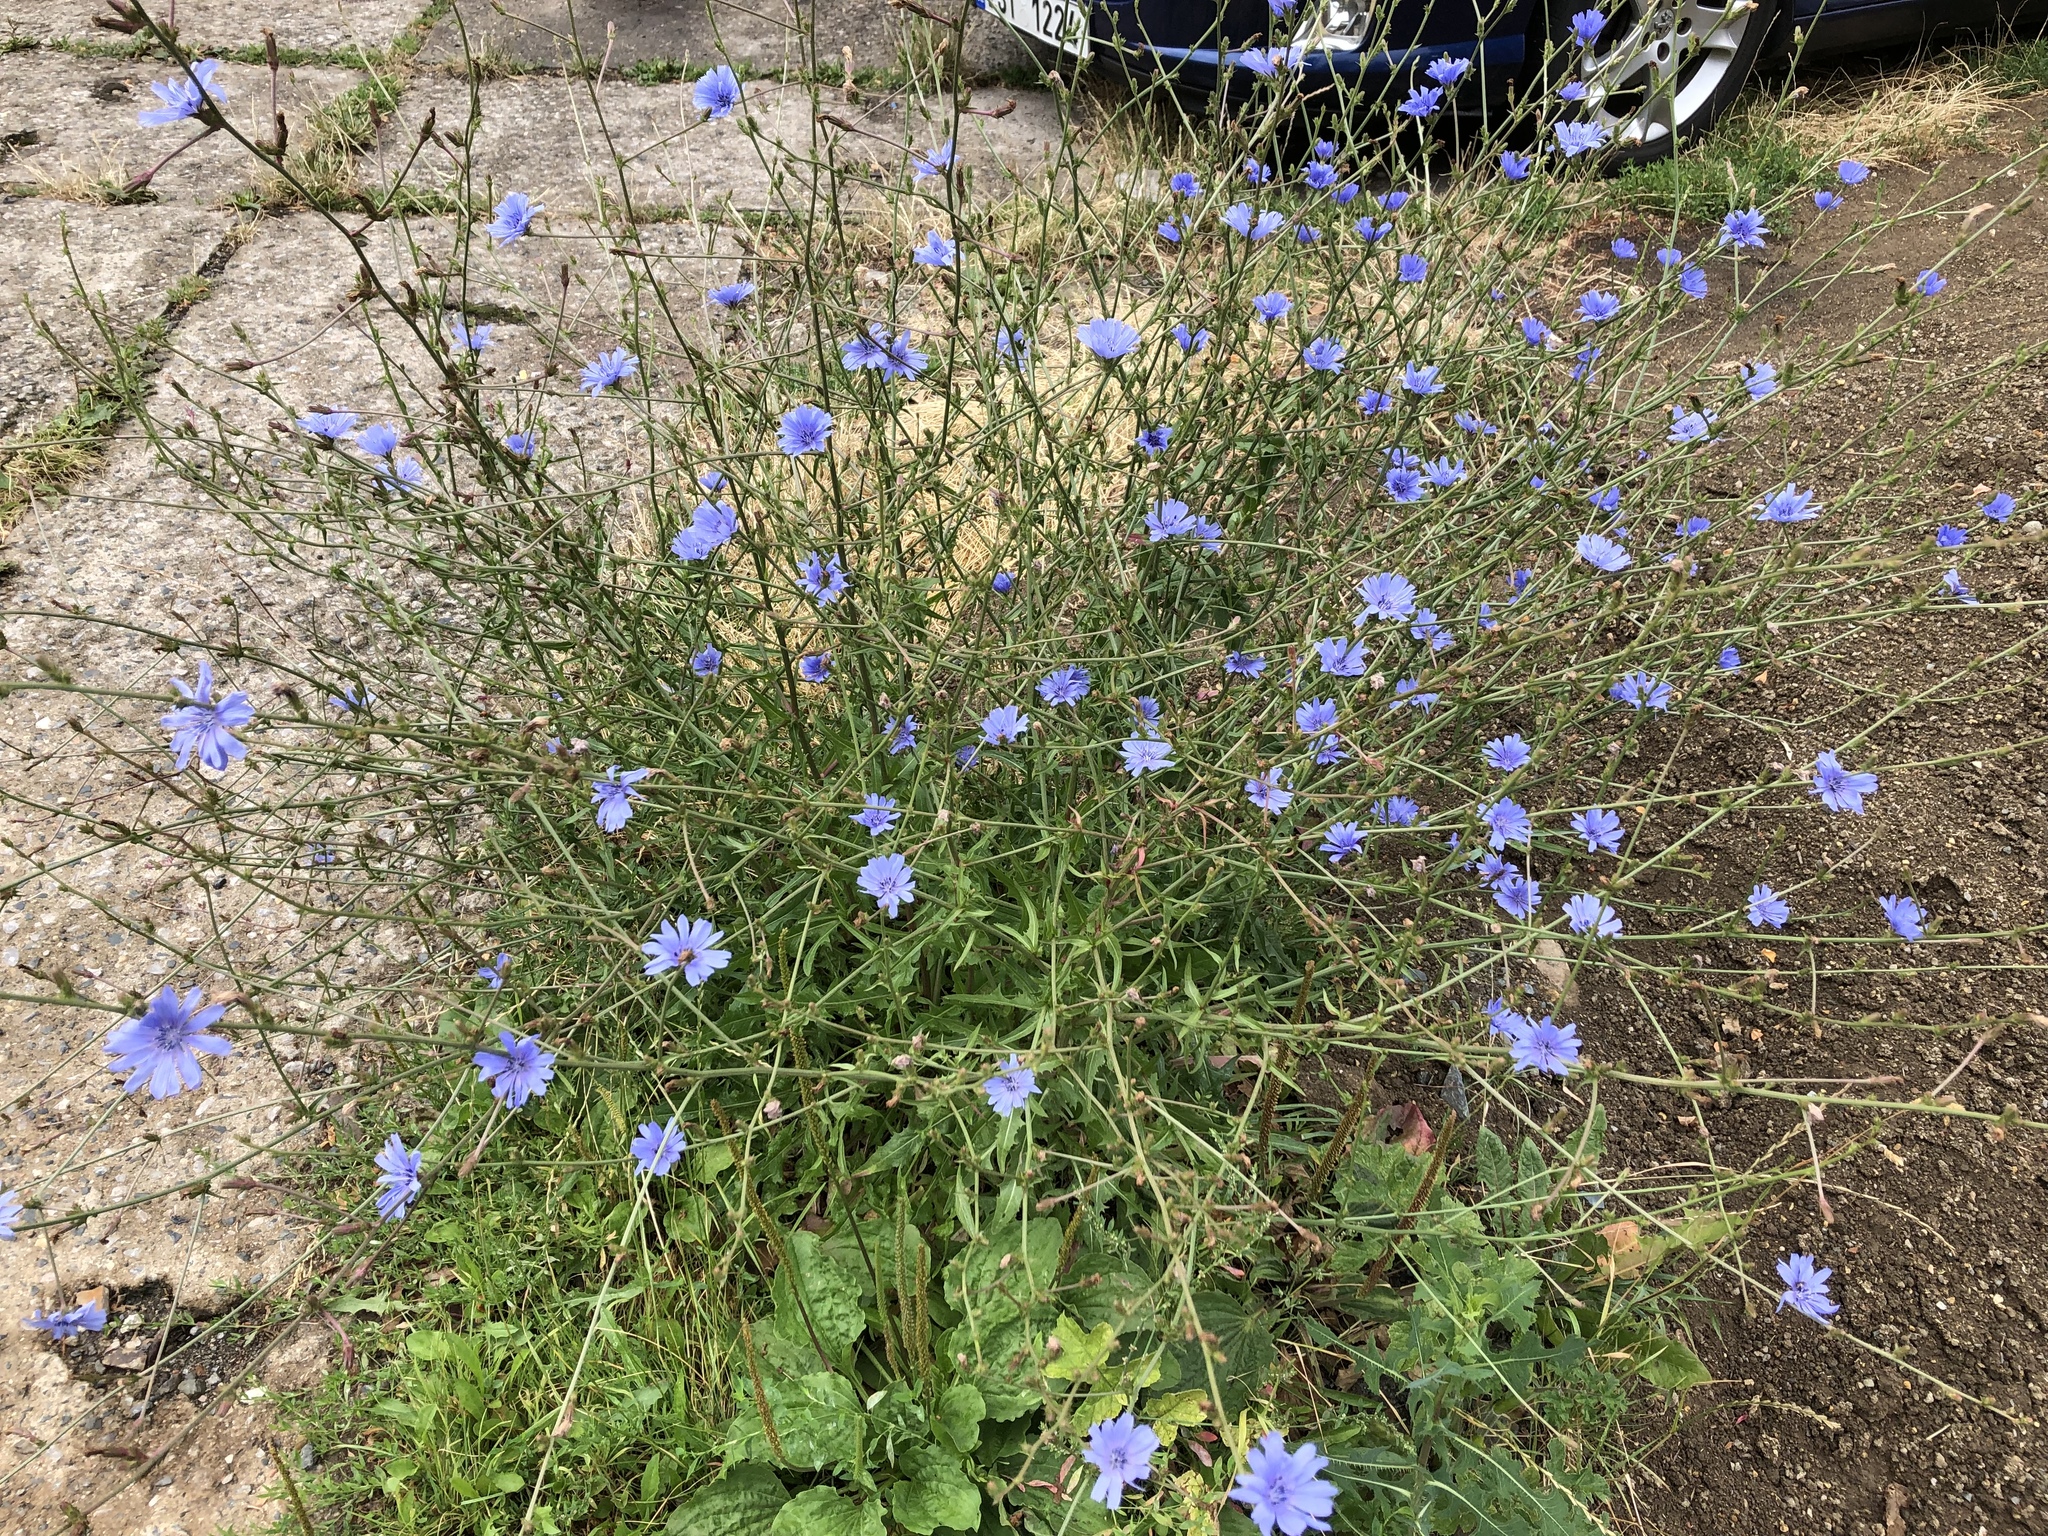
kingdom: Plantae
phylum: Tracheophyta
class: Magnoliopsida
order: Asterales
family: Asteraceae
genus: Cichorium
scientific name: Cichorium intybus
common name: Chicory
